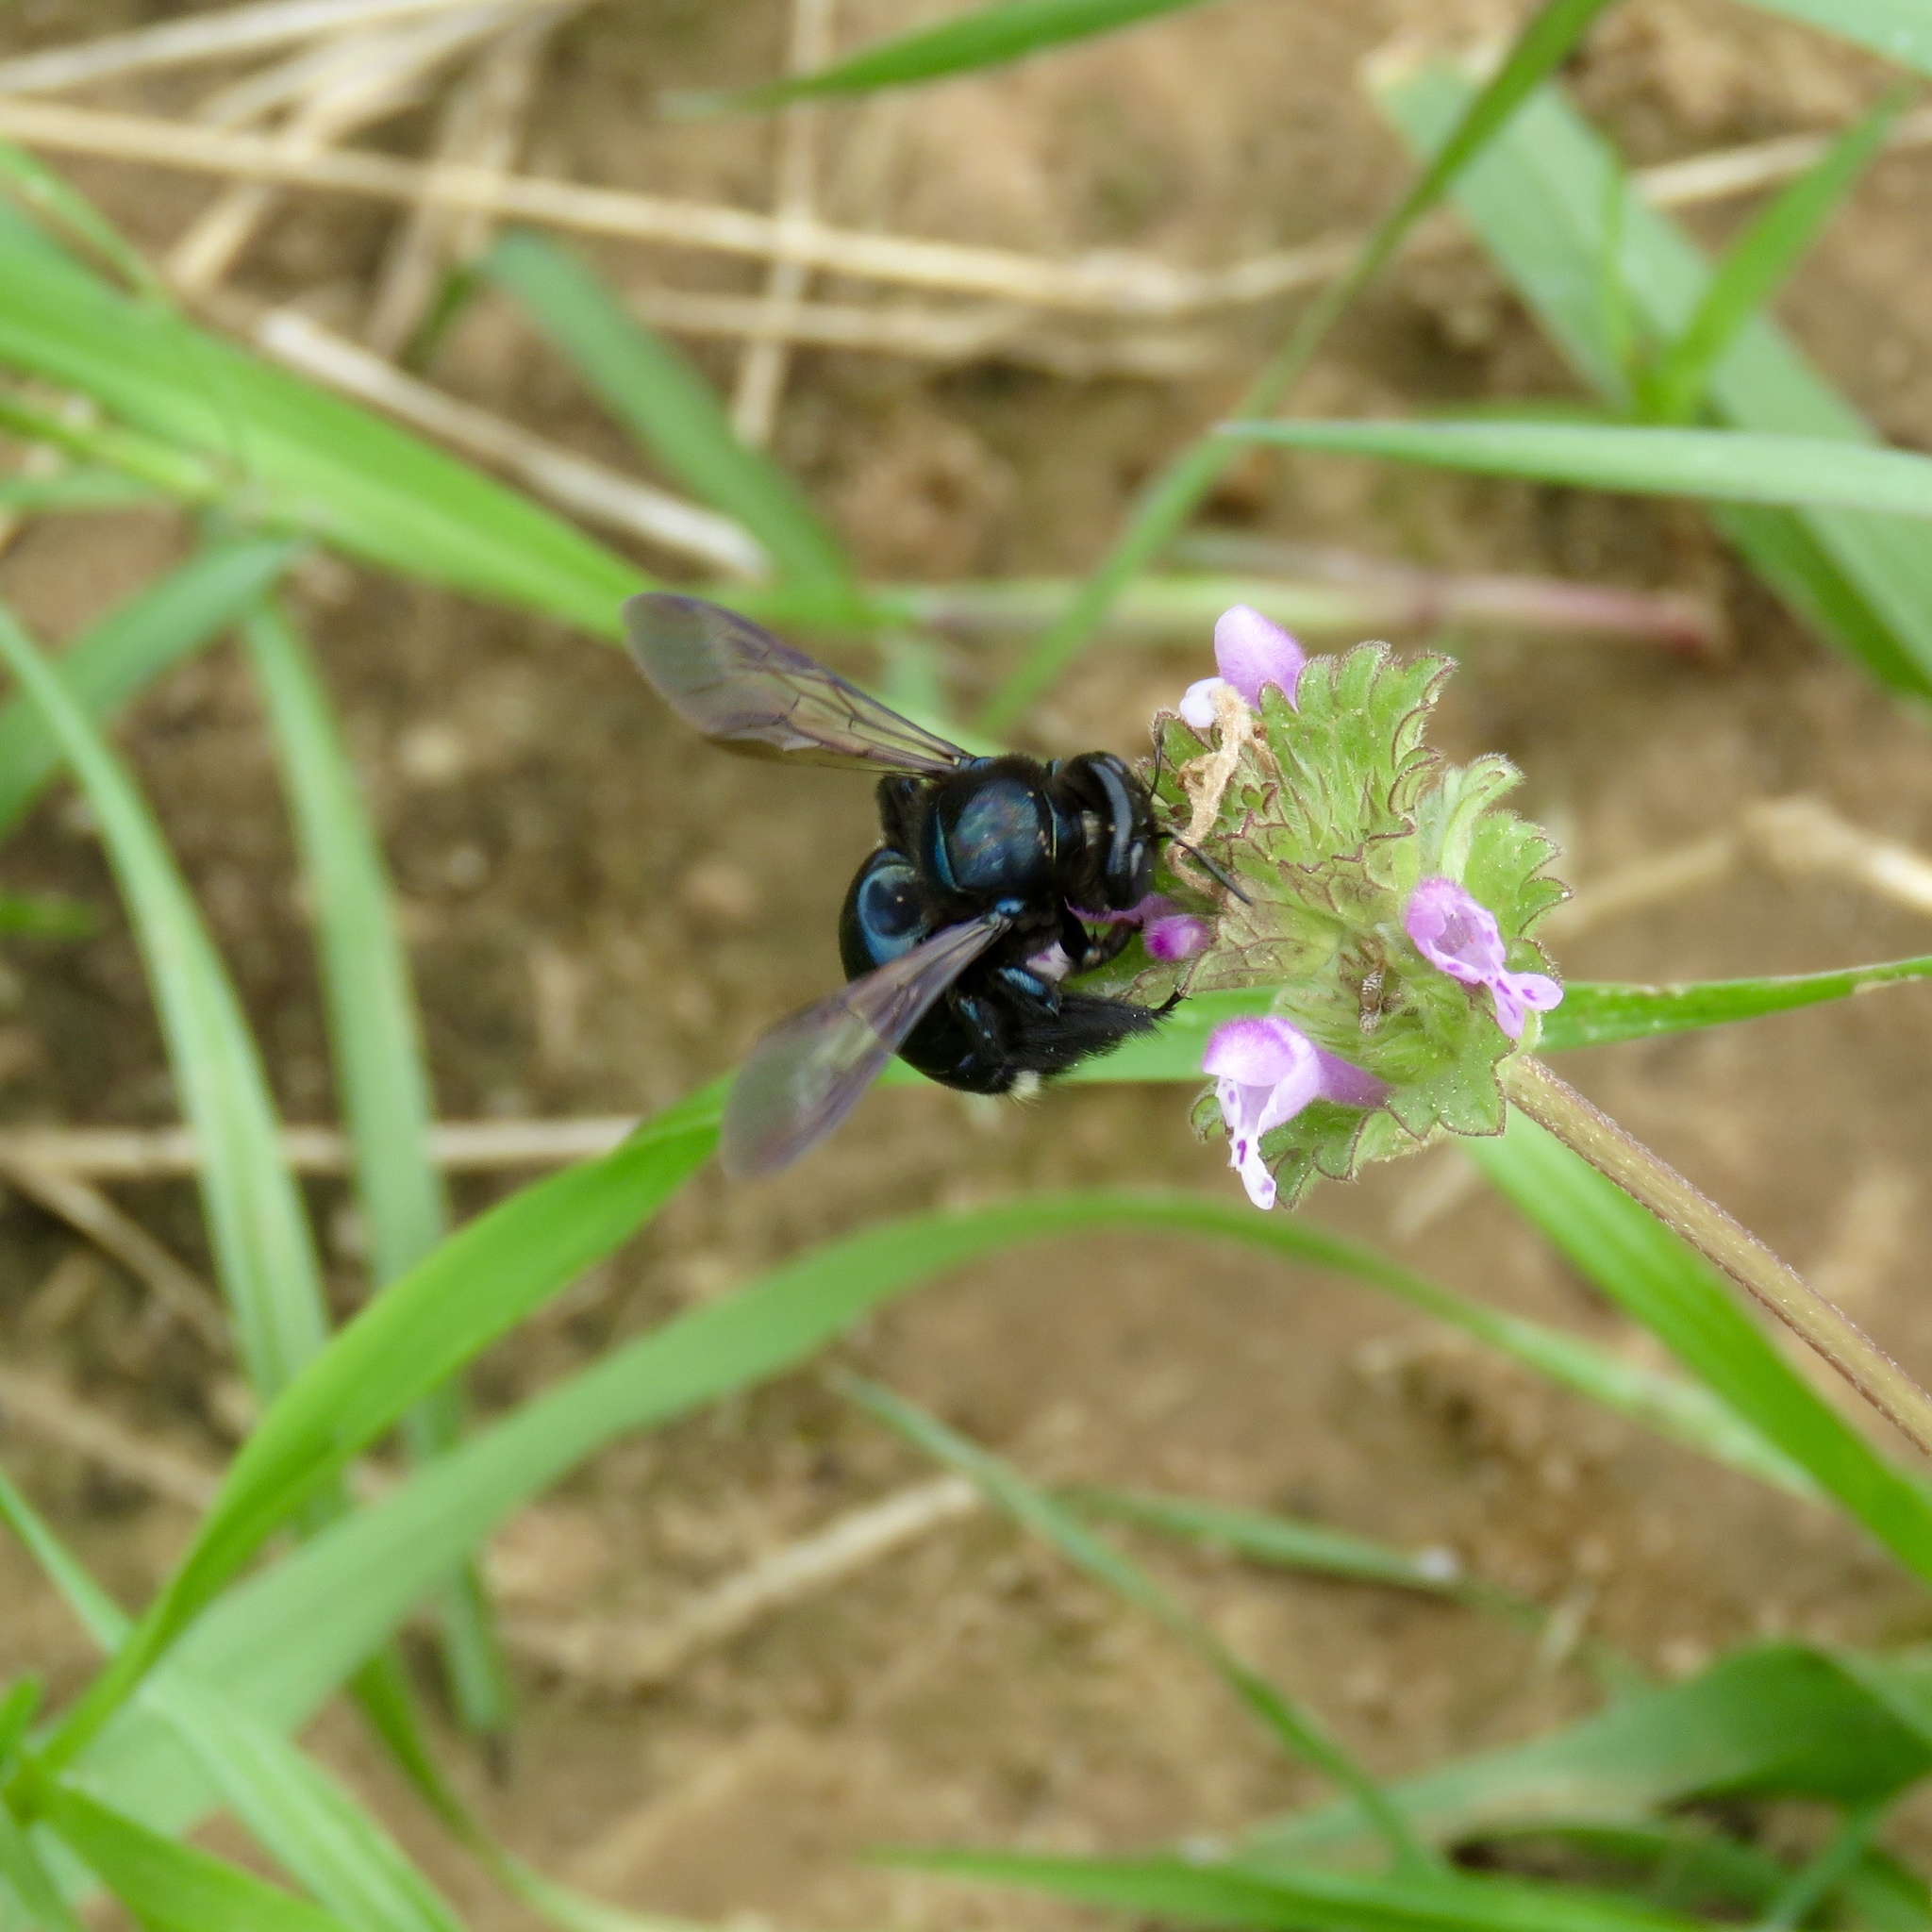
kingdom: Animalia
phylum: Arthropoda
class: Insecta
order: Hymenoptera
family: Apidae
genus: Xylocopa
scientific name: Xylocopa micans
